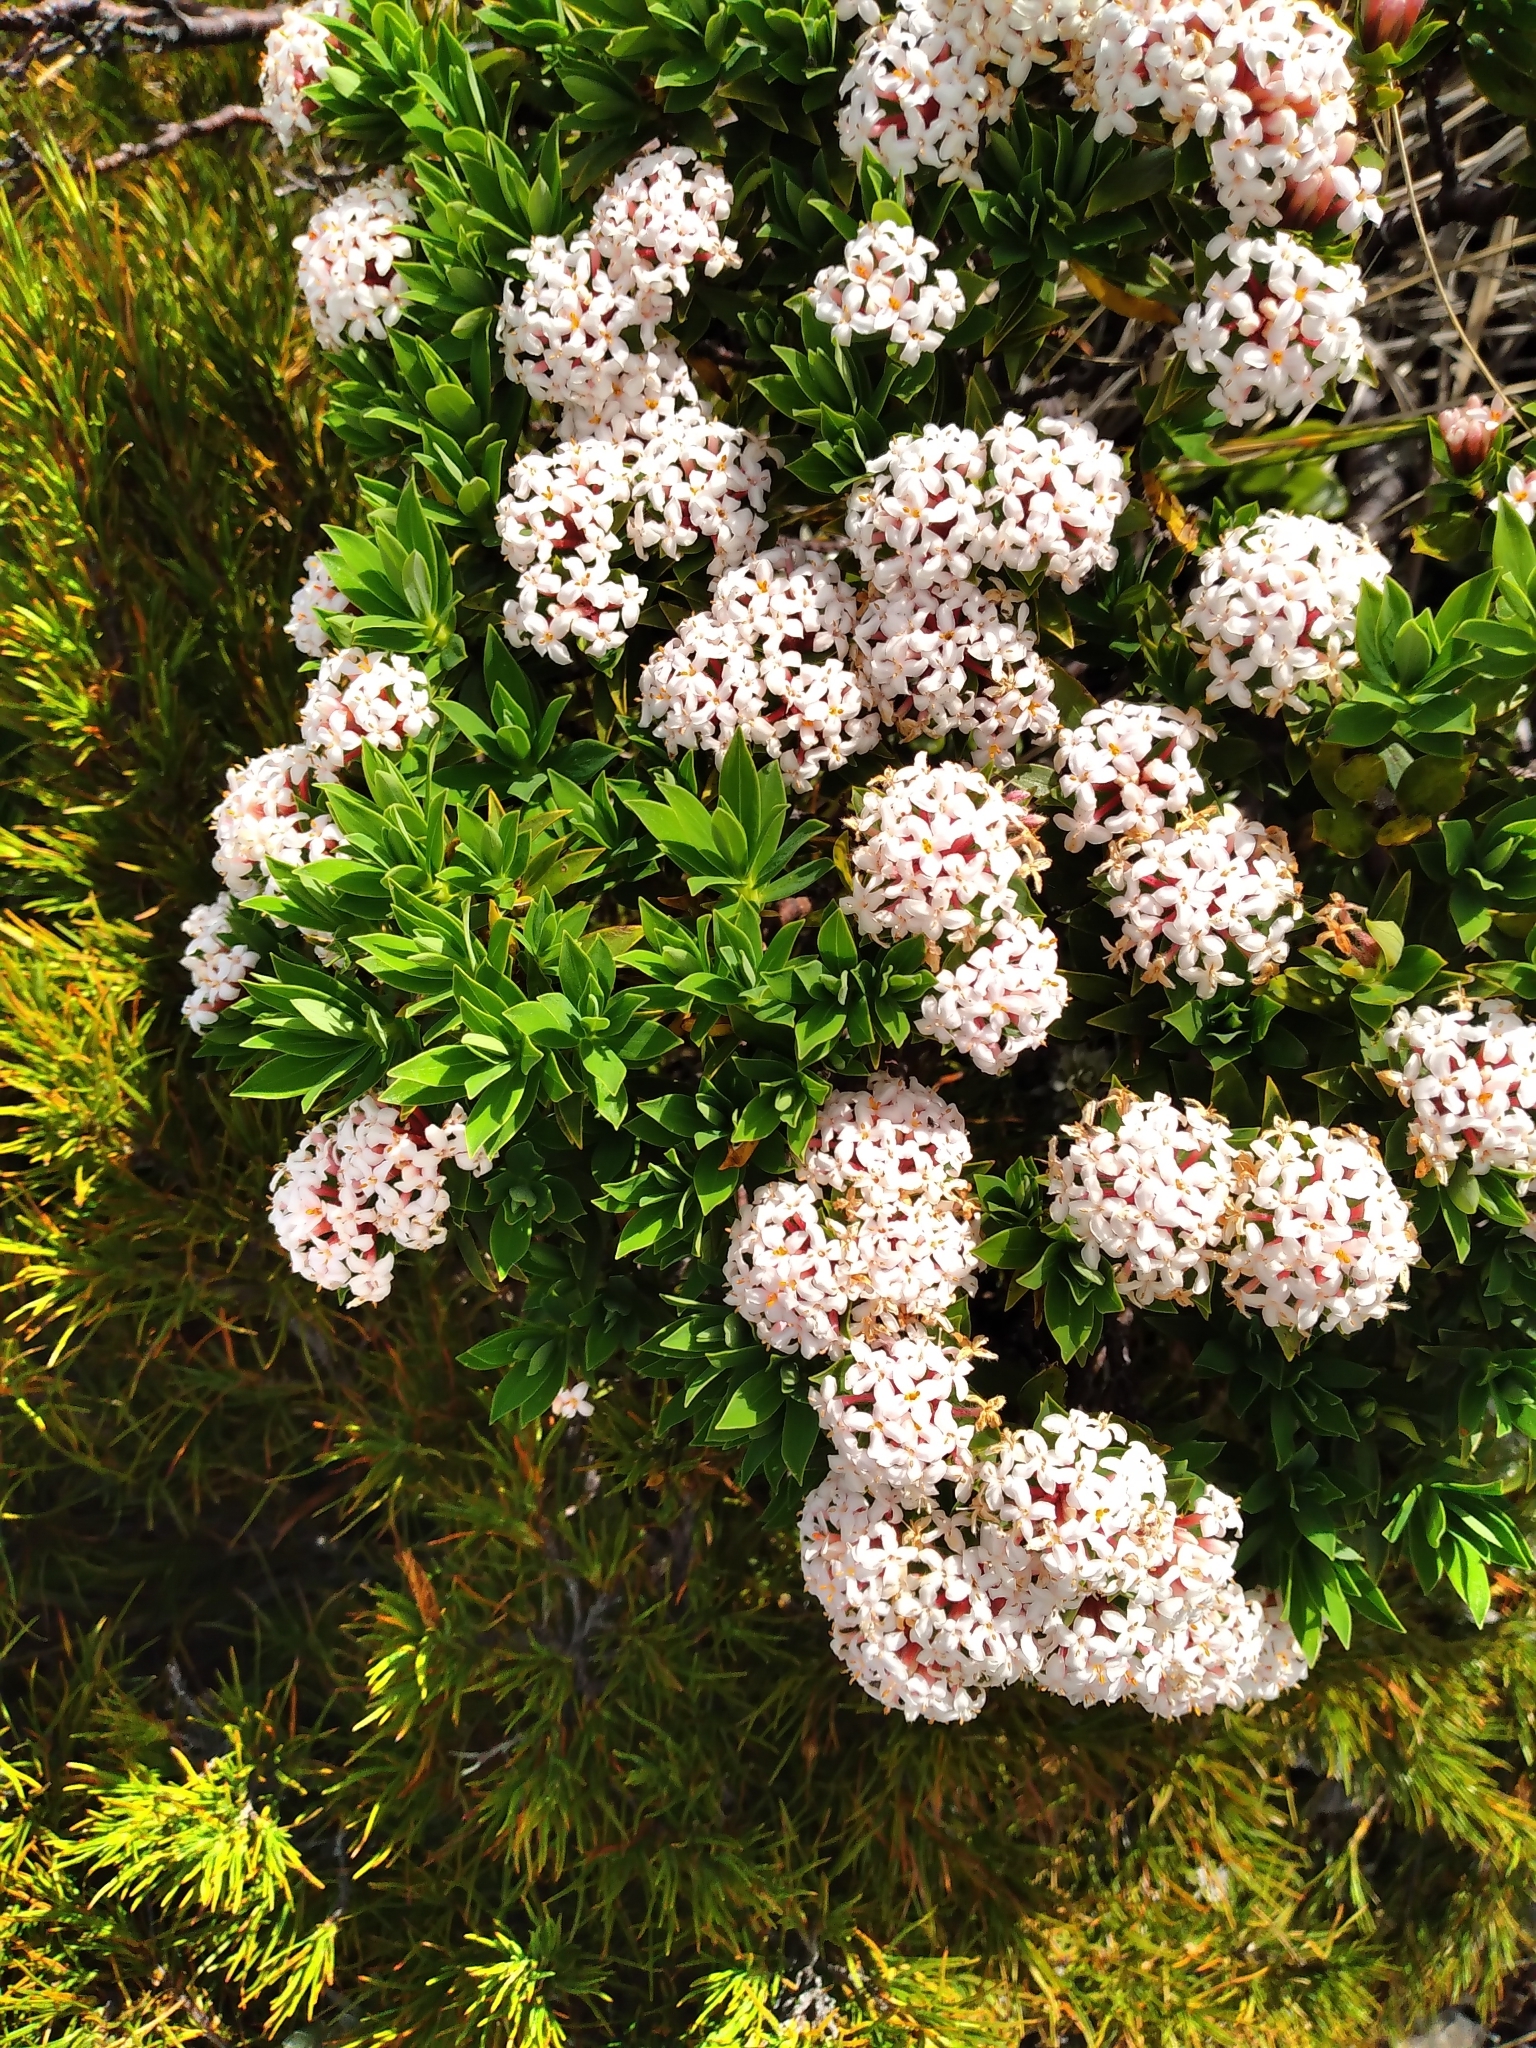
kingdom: Plantae
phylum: Tracheophyta
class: Magnoliopsida
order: Malvales
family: Thymelaeaceae
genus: Pimelea
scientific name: Pimelea gnidia
